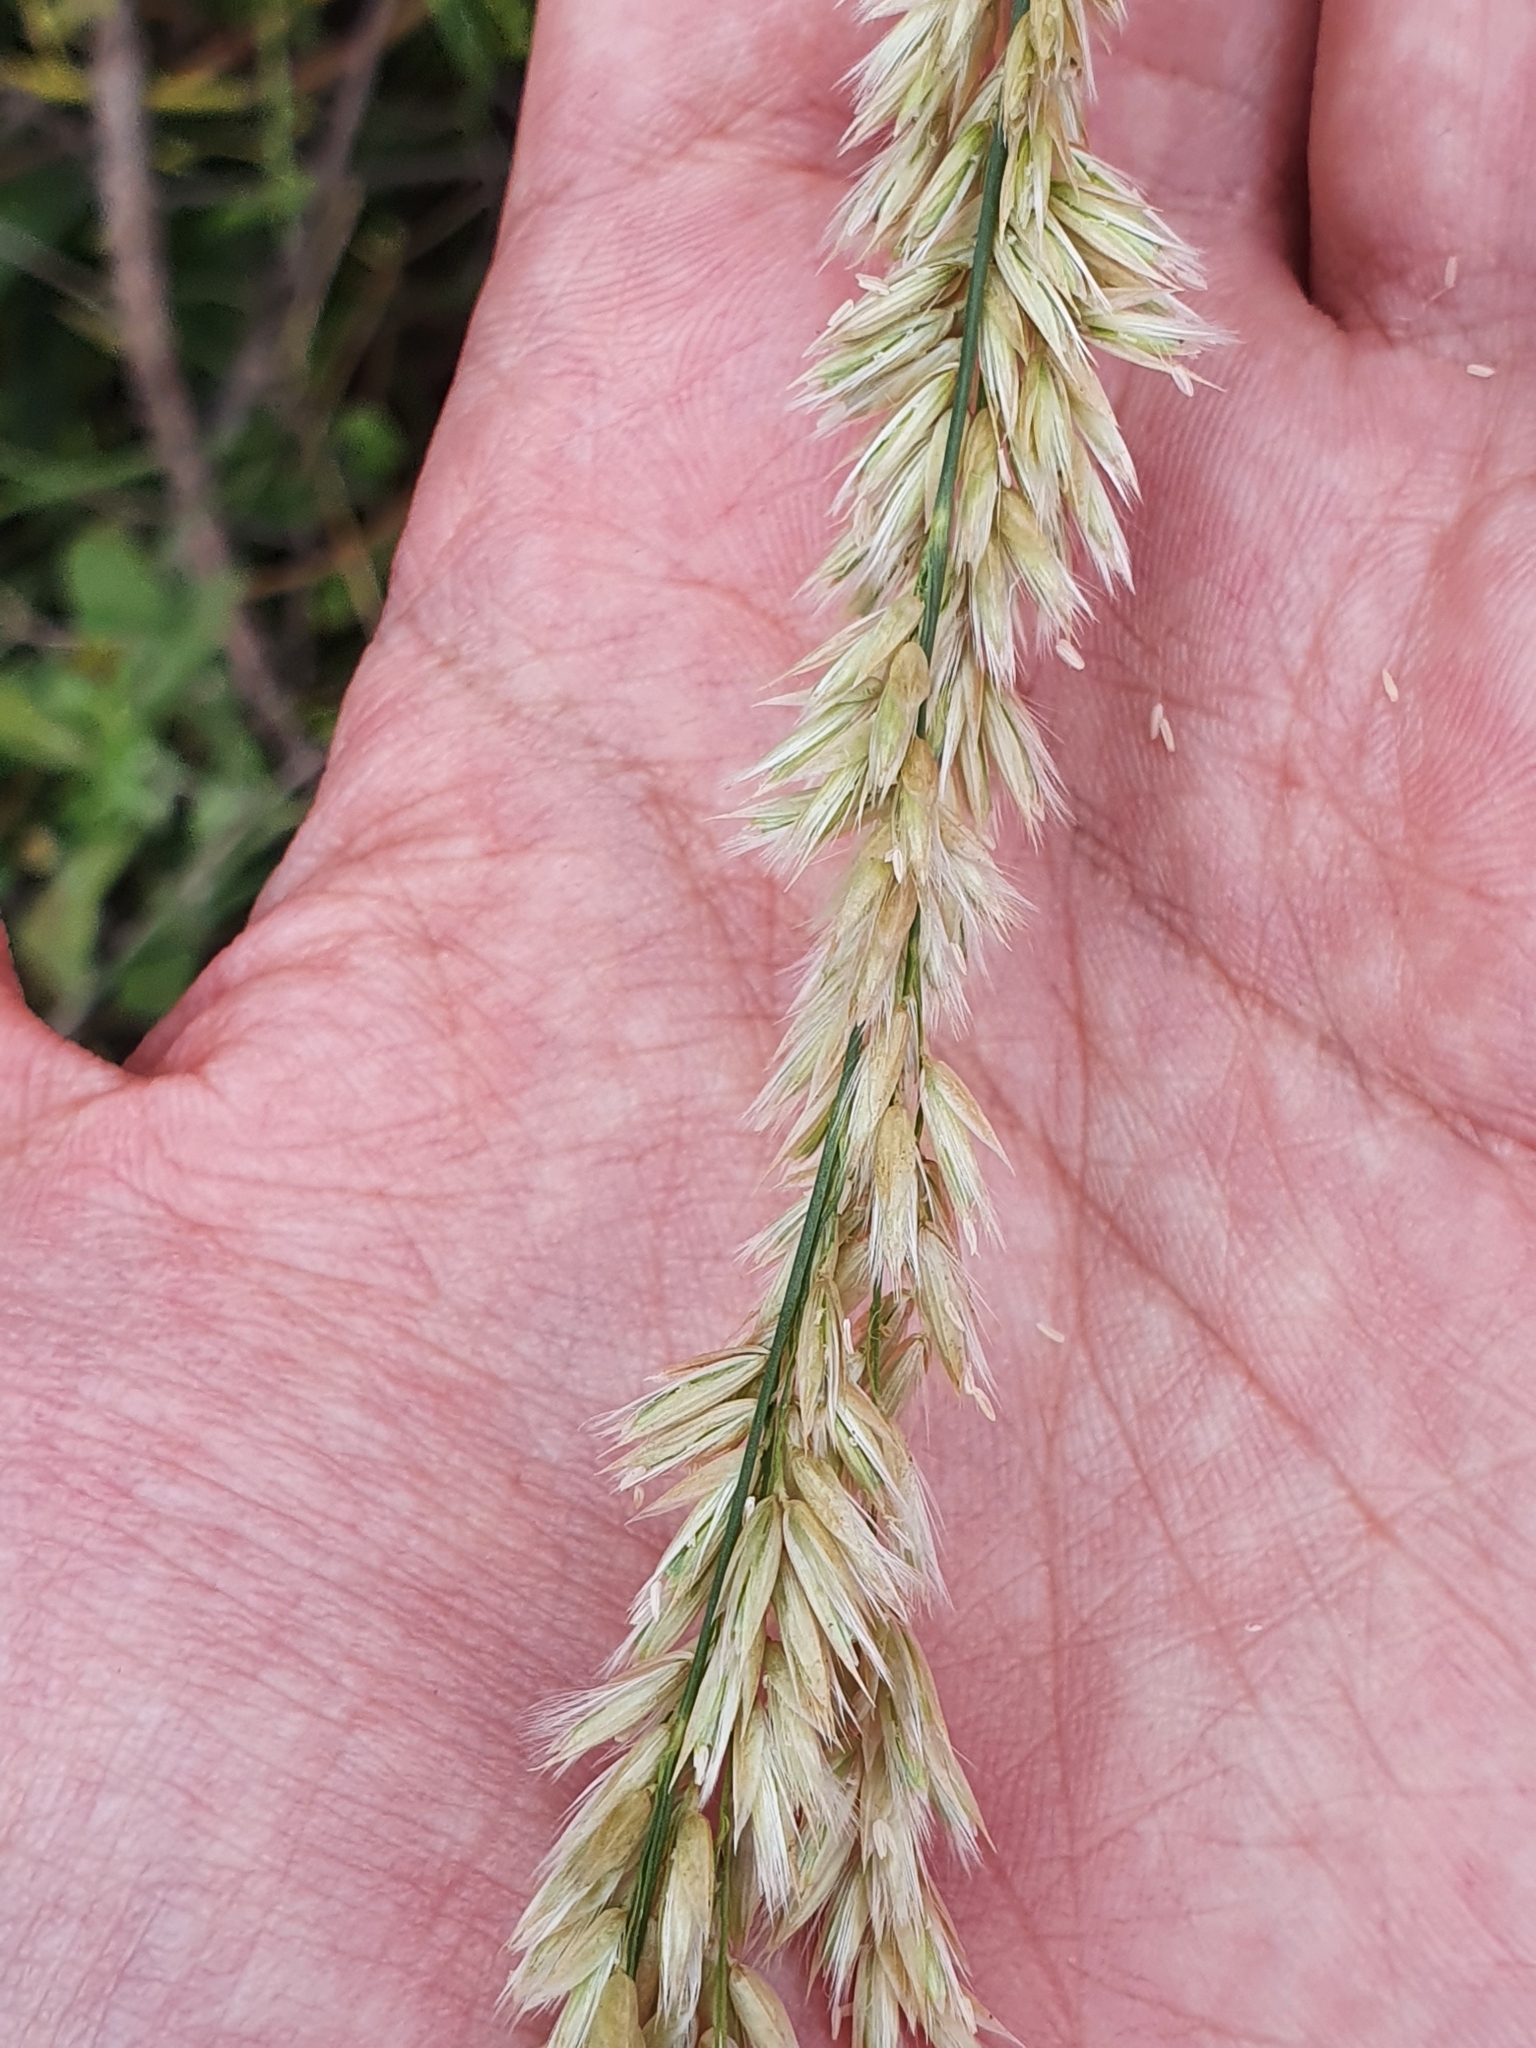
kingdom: Plantae
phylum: Tracheophyta
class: Liliopsida
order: Poales
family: Poaceae
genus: Melica
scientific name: Melica ciliata
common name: Hairy melicgrass
